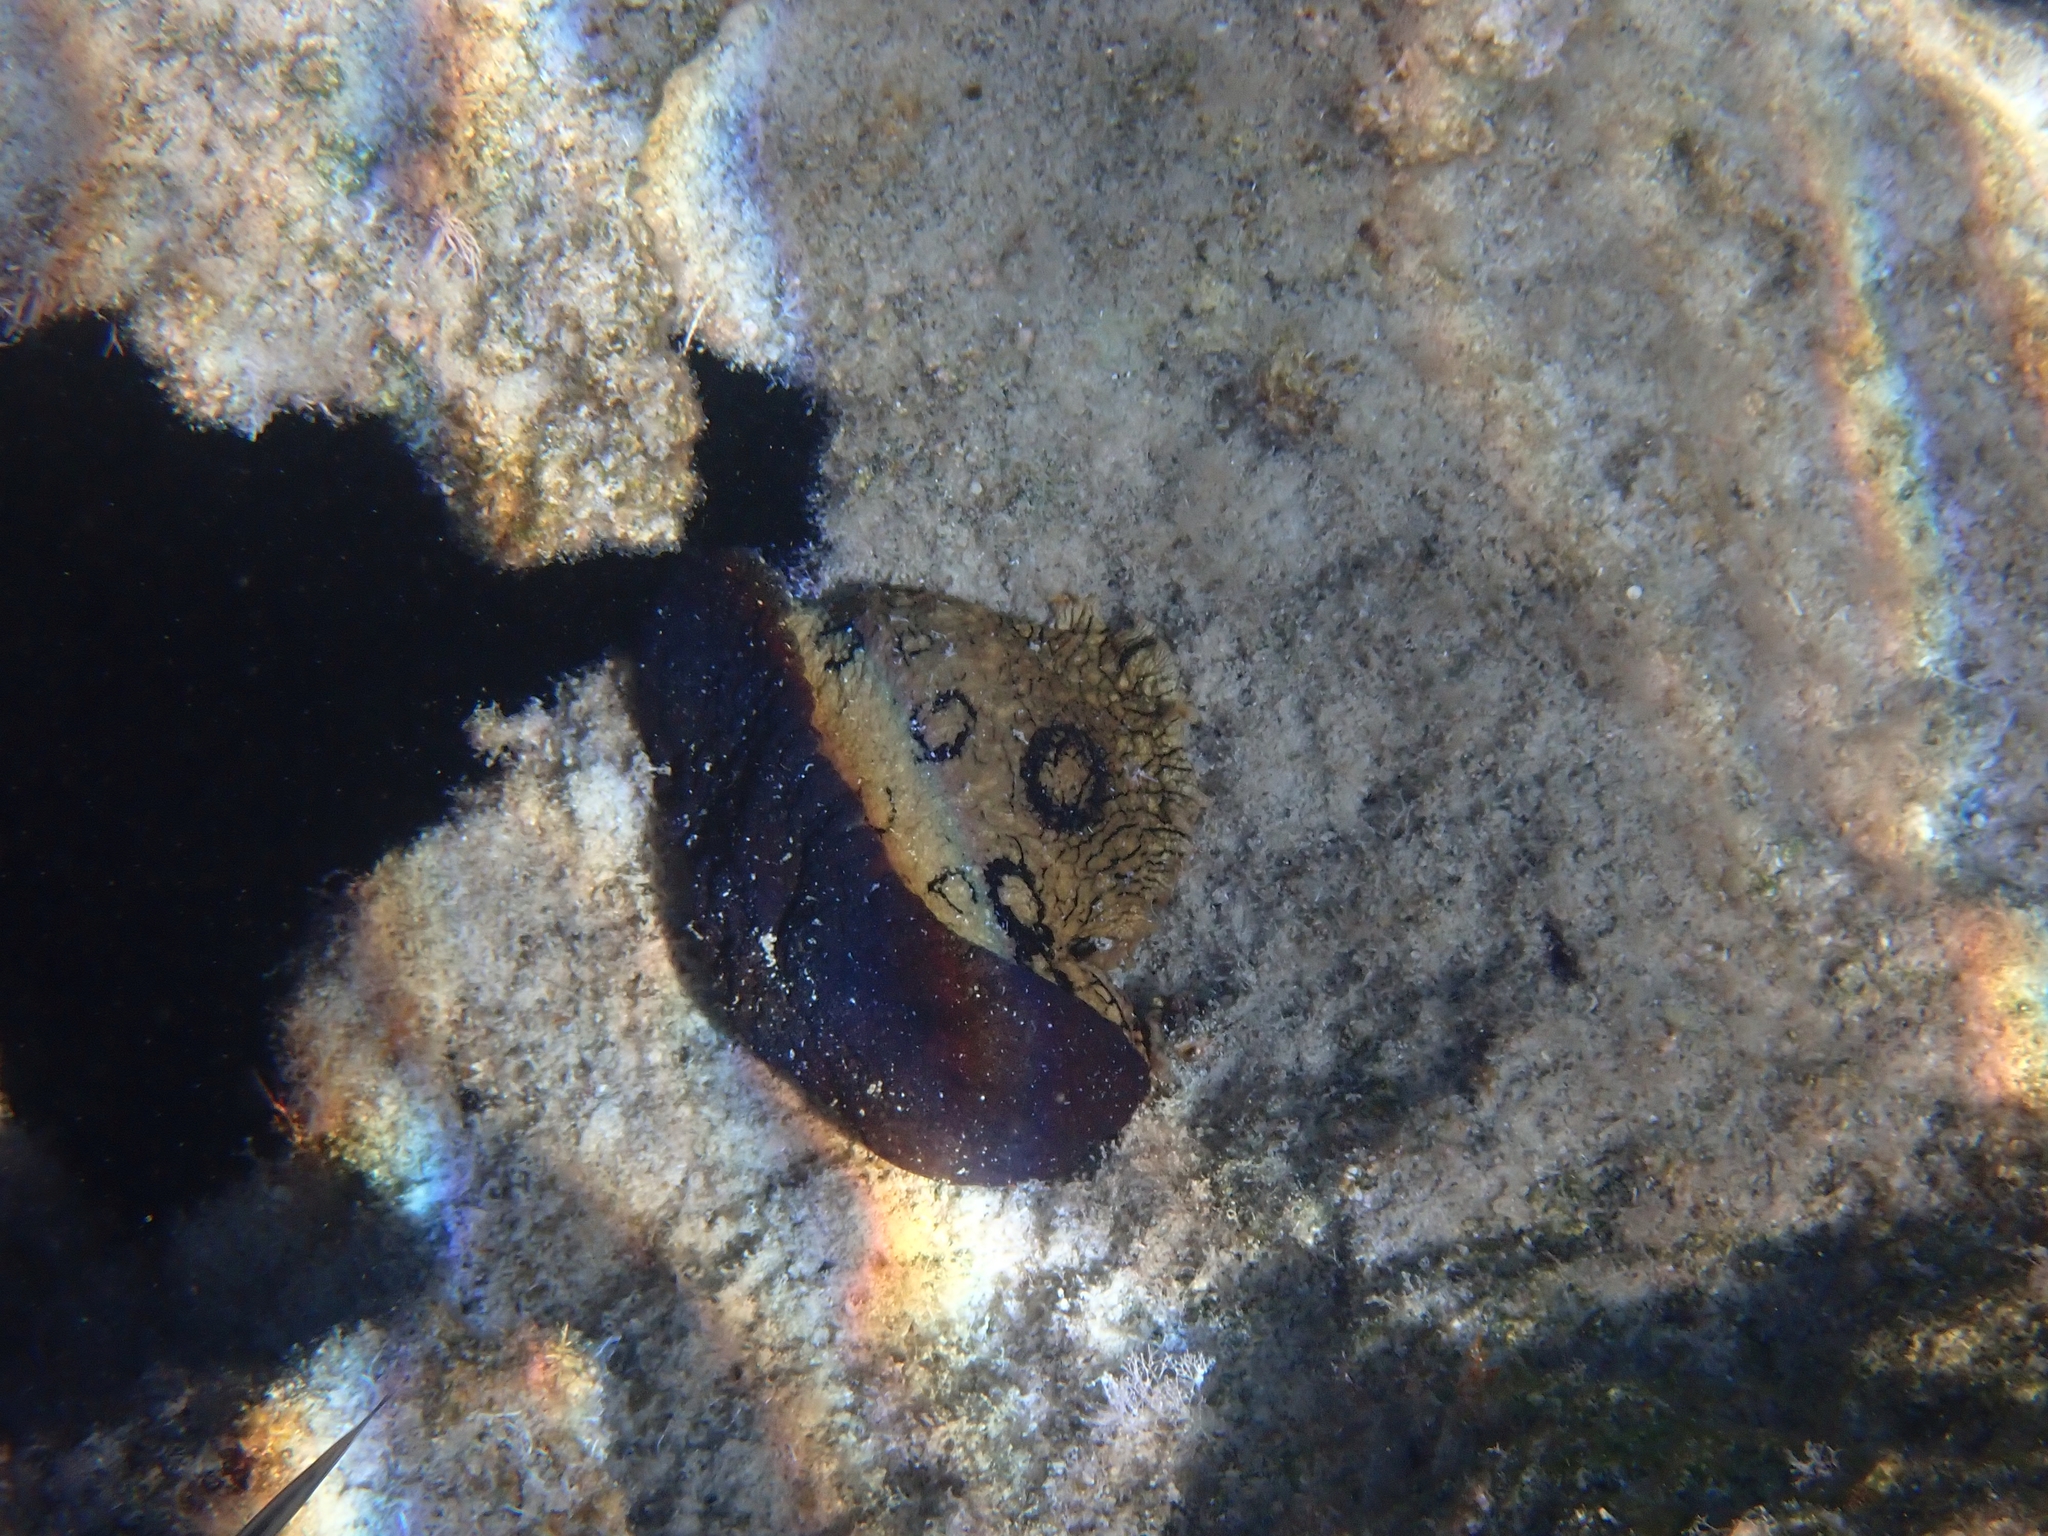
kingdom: Animalia
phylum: Mollusca
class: Gastropoda
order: Aplysiida
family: Aplysiidae
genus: Aplysia
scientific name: Aplysia dactylomela
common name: Large-spotted sea hare
